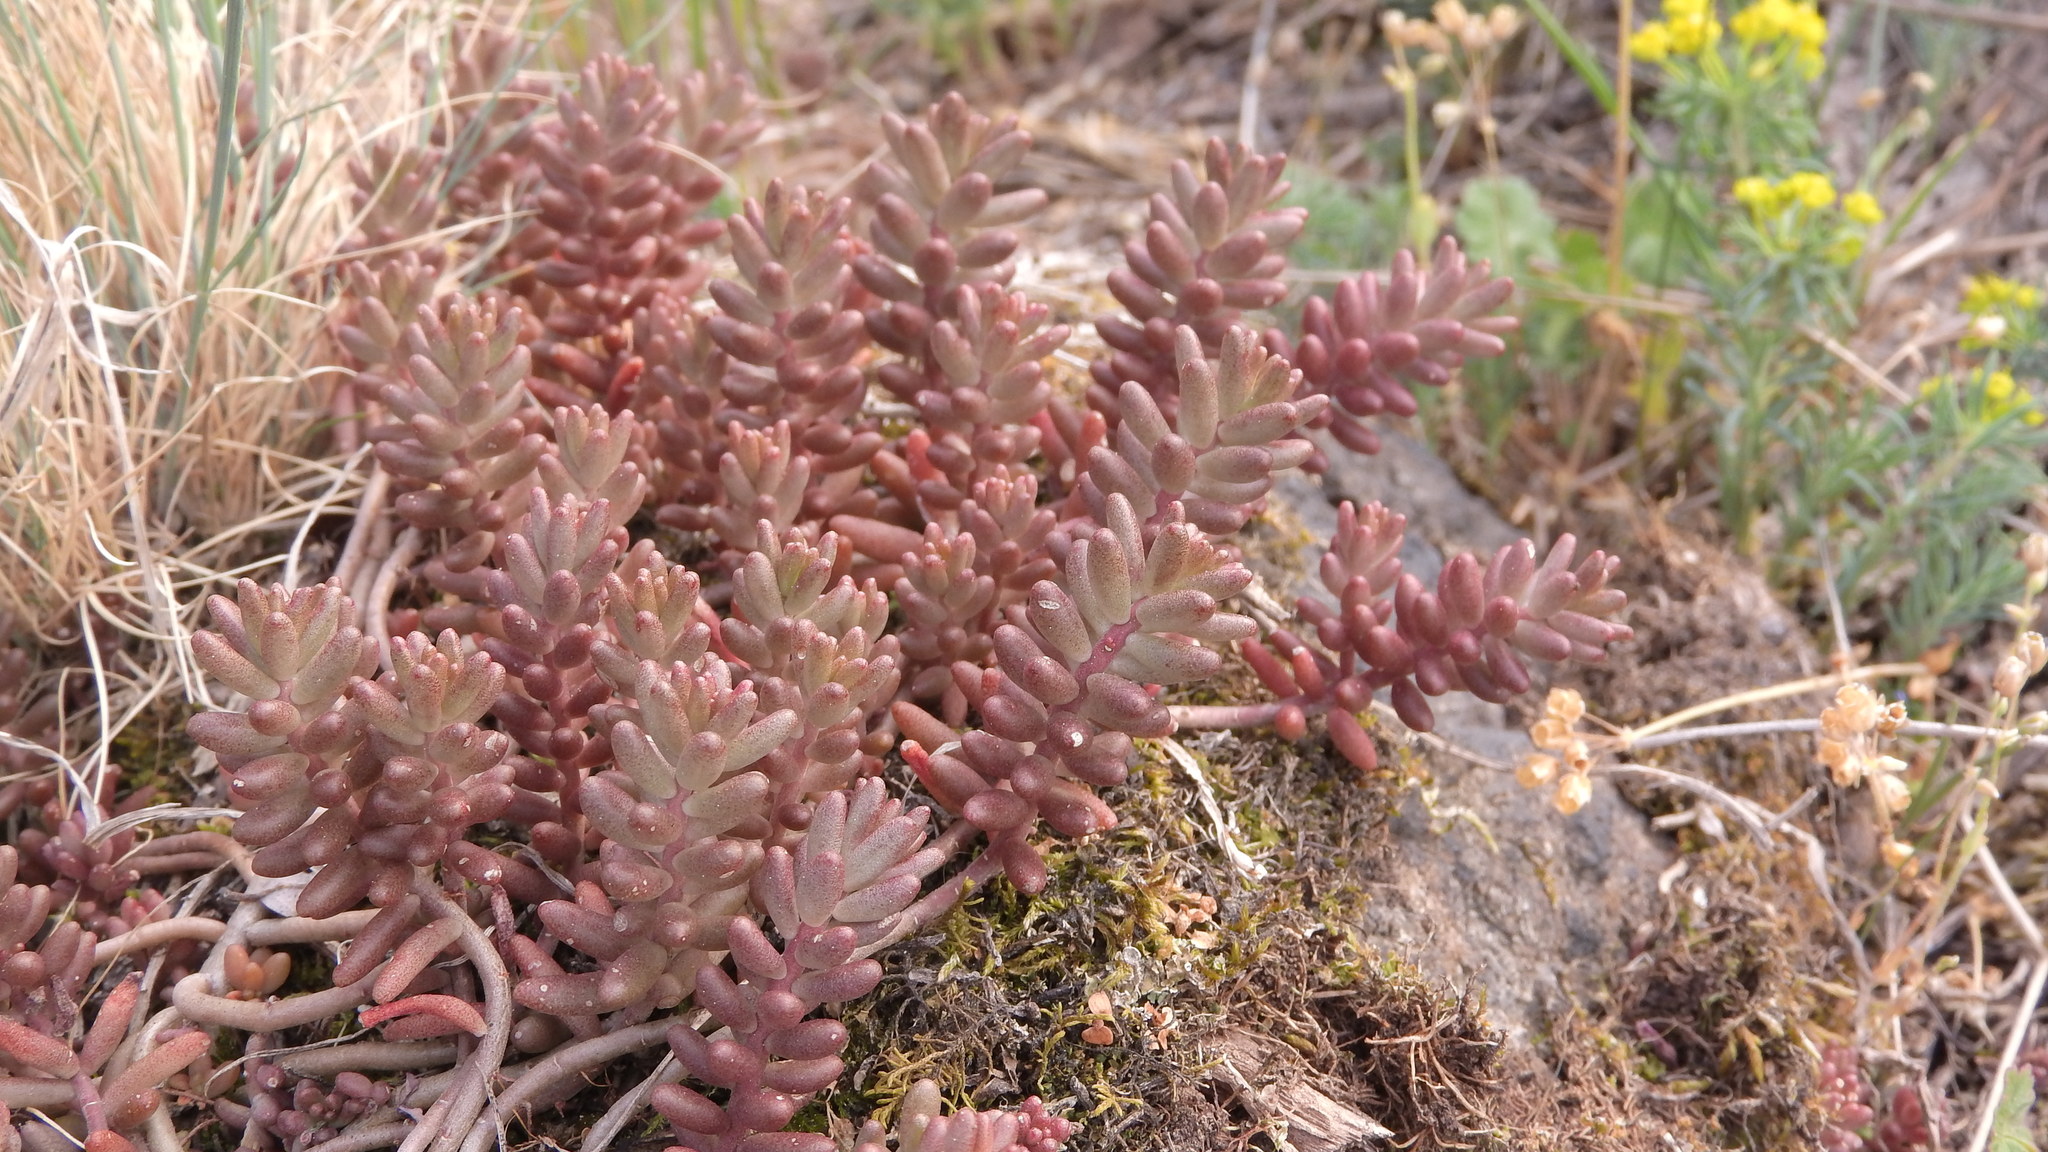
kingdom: Plantae
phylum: Tracheophyta
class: Magnoliopsida
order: Saxifragales
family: Crassulaceae
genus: Sedum
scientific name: Sedum album
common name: White stonecrop
